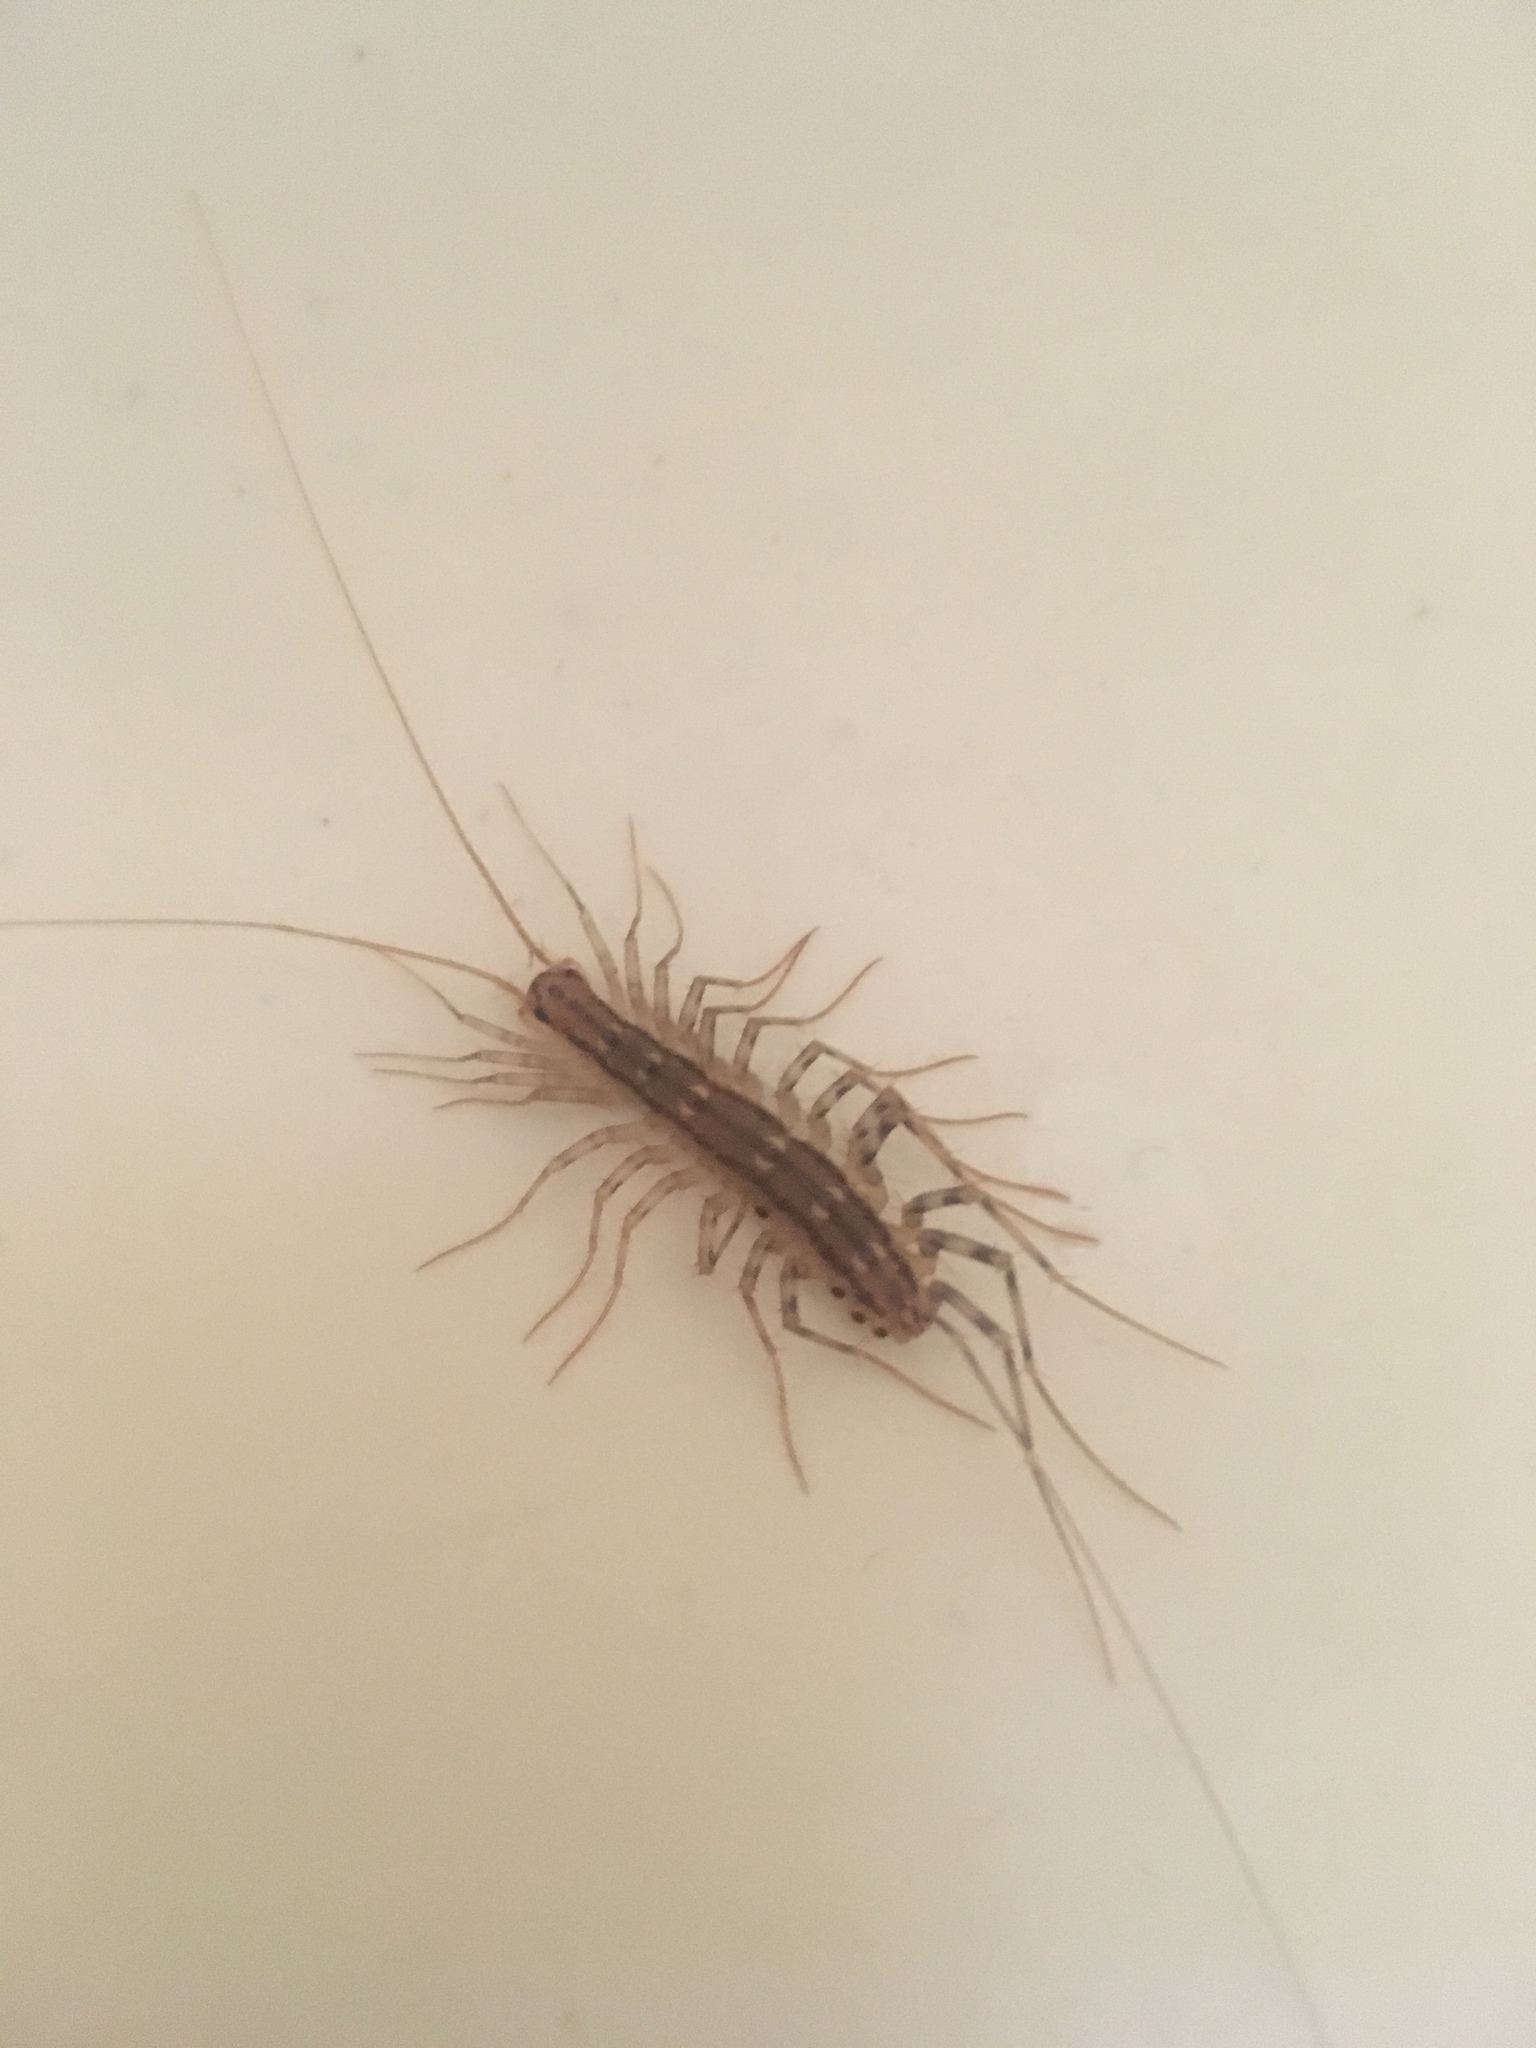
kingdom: Animalia
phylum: Arthropoda
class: Chilopoda
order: Scutigeromorpha
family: Scutigeridae
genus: Scutigera
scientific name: Scutigera coleoptrata
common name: House centipede
